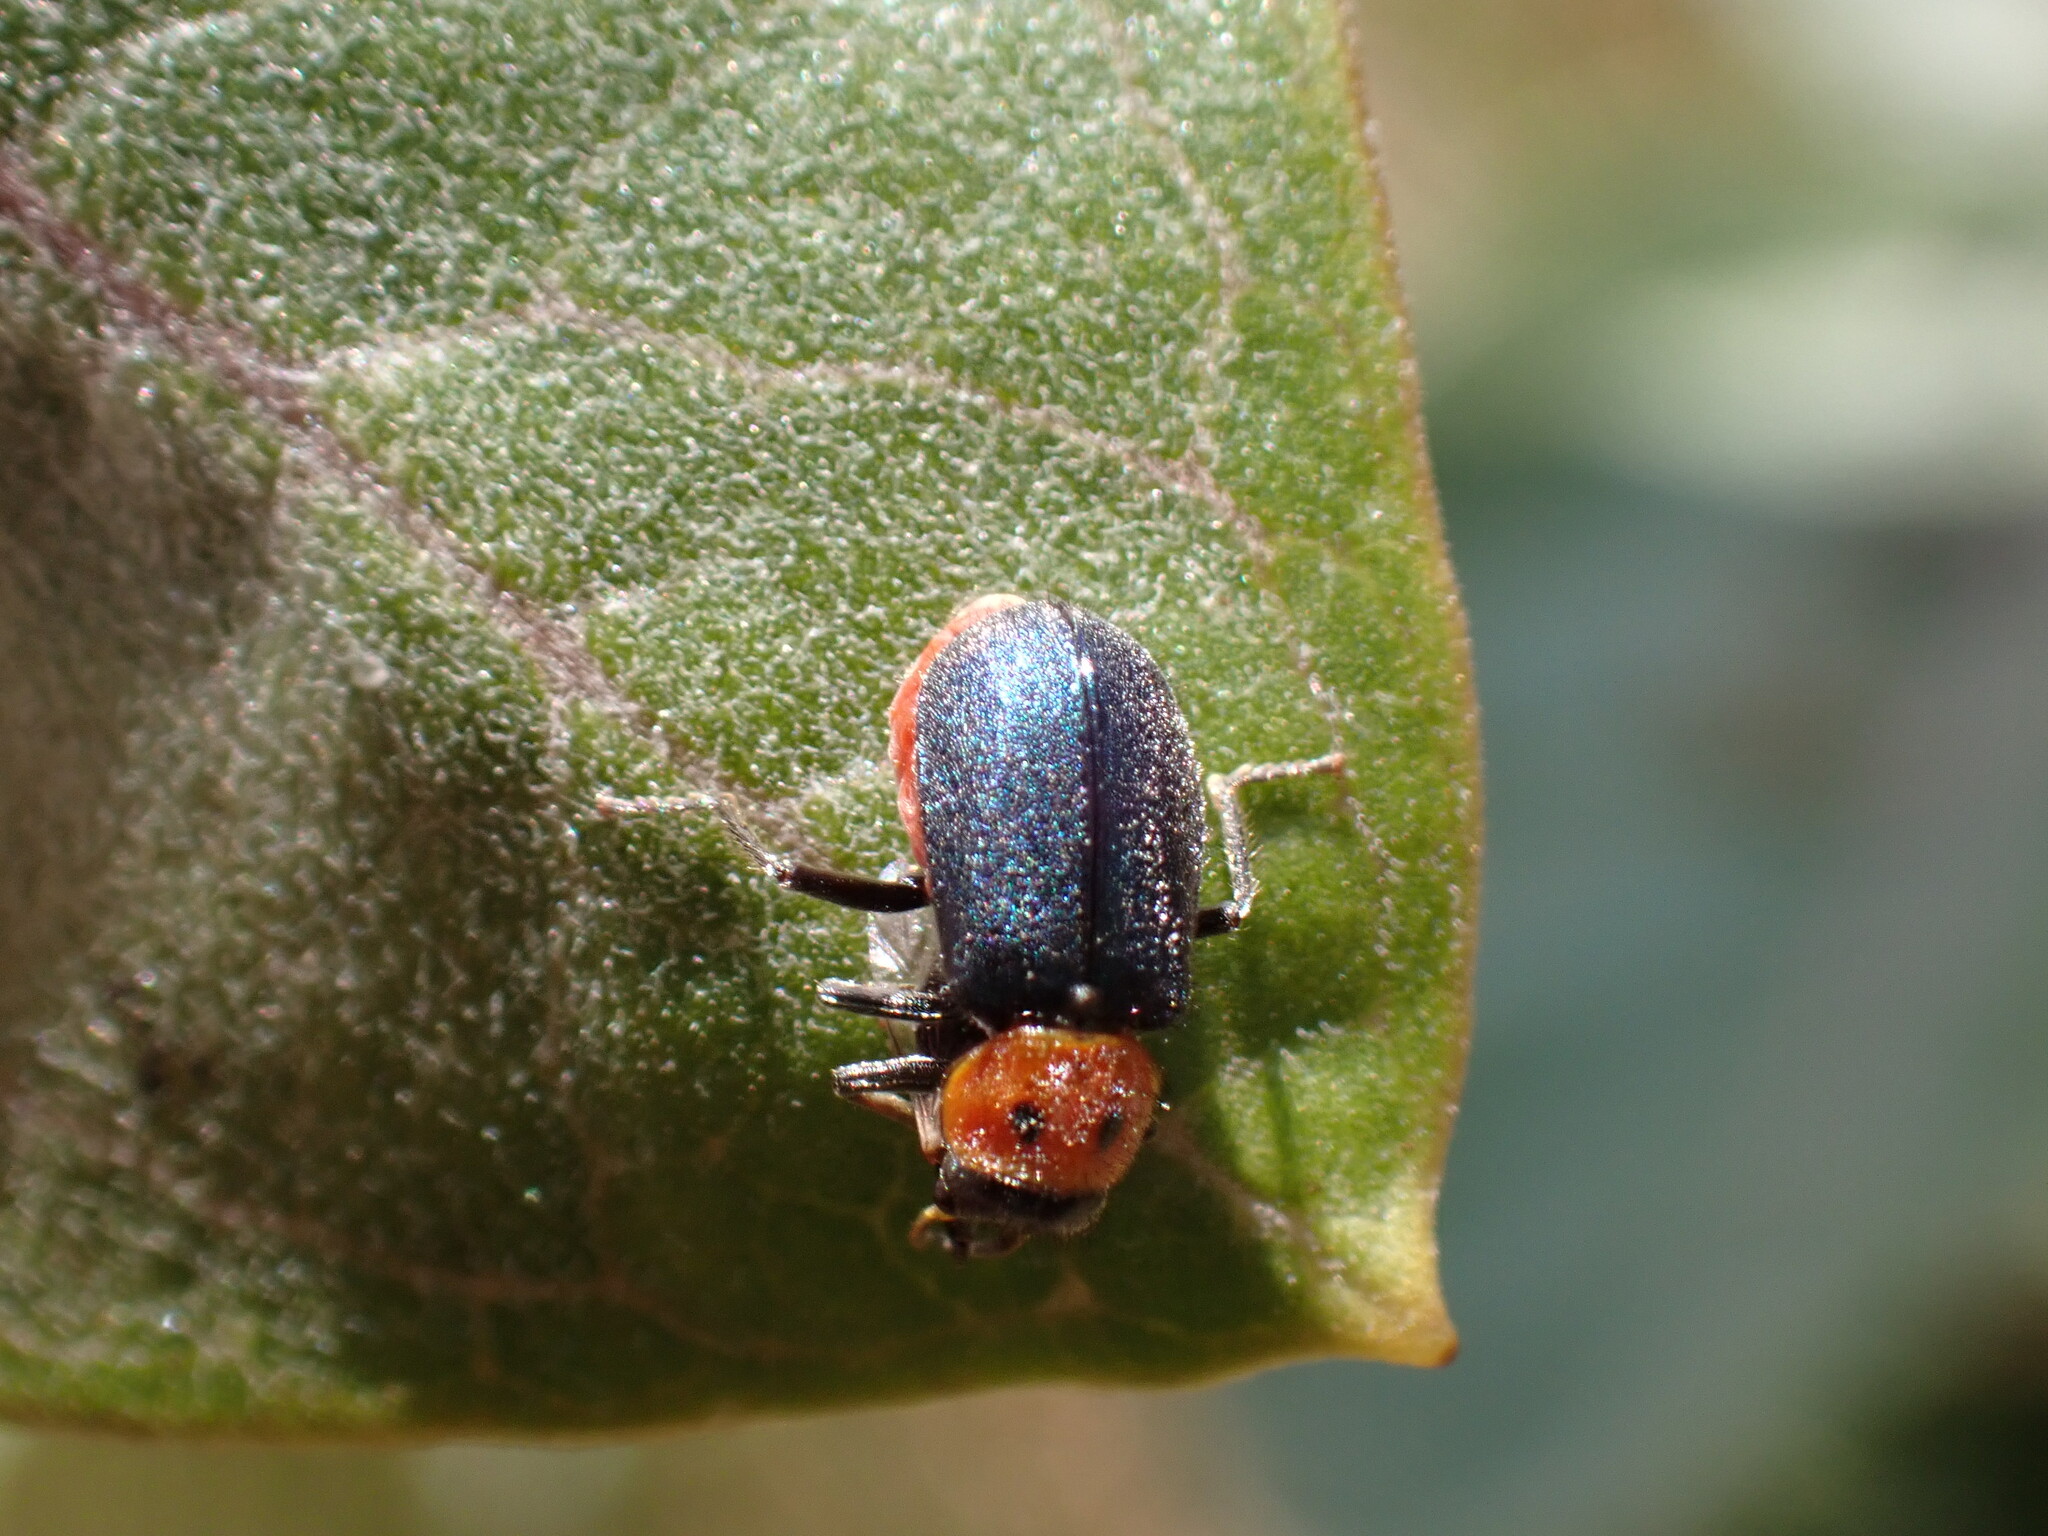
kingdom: Animalia
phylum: Arthropoda
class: Insecta
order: Coleoptera
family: Melyridae
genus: Collops
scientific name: Collops bipunctatus
